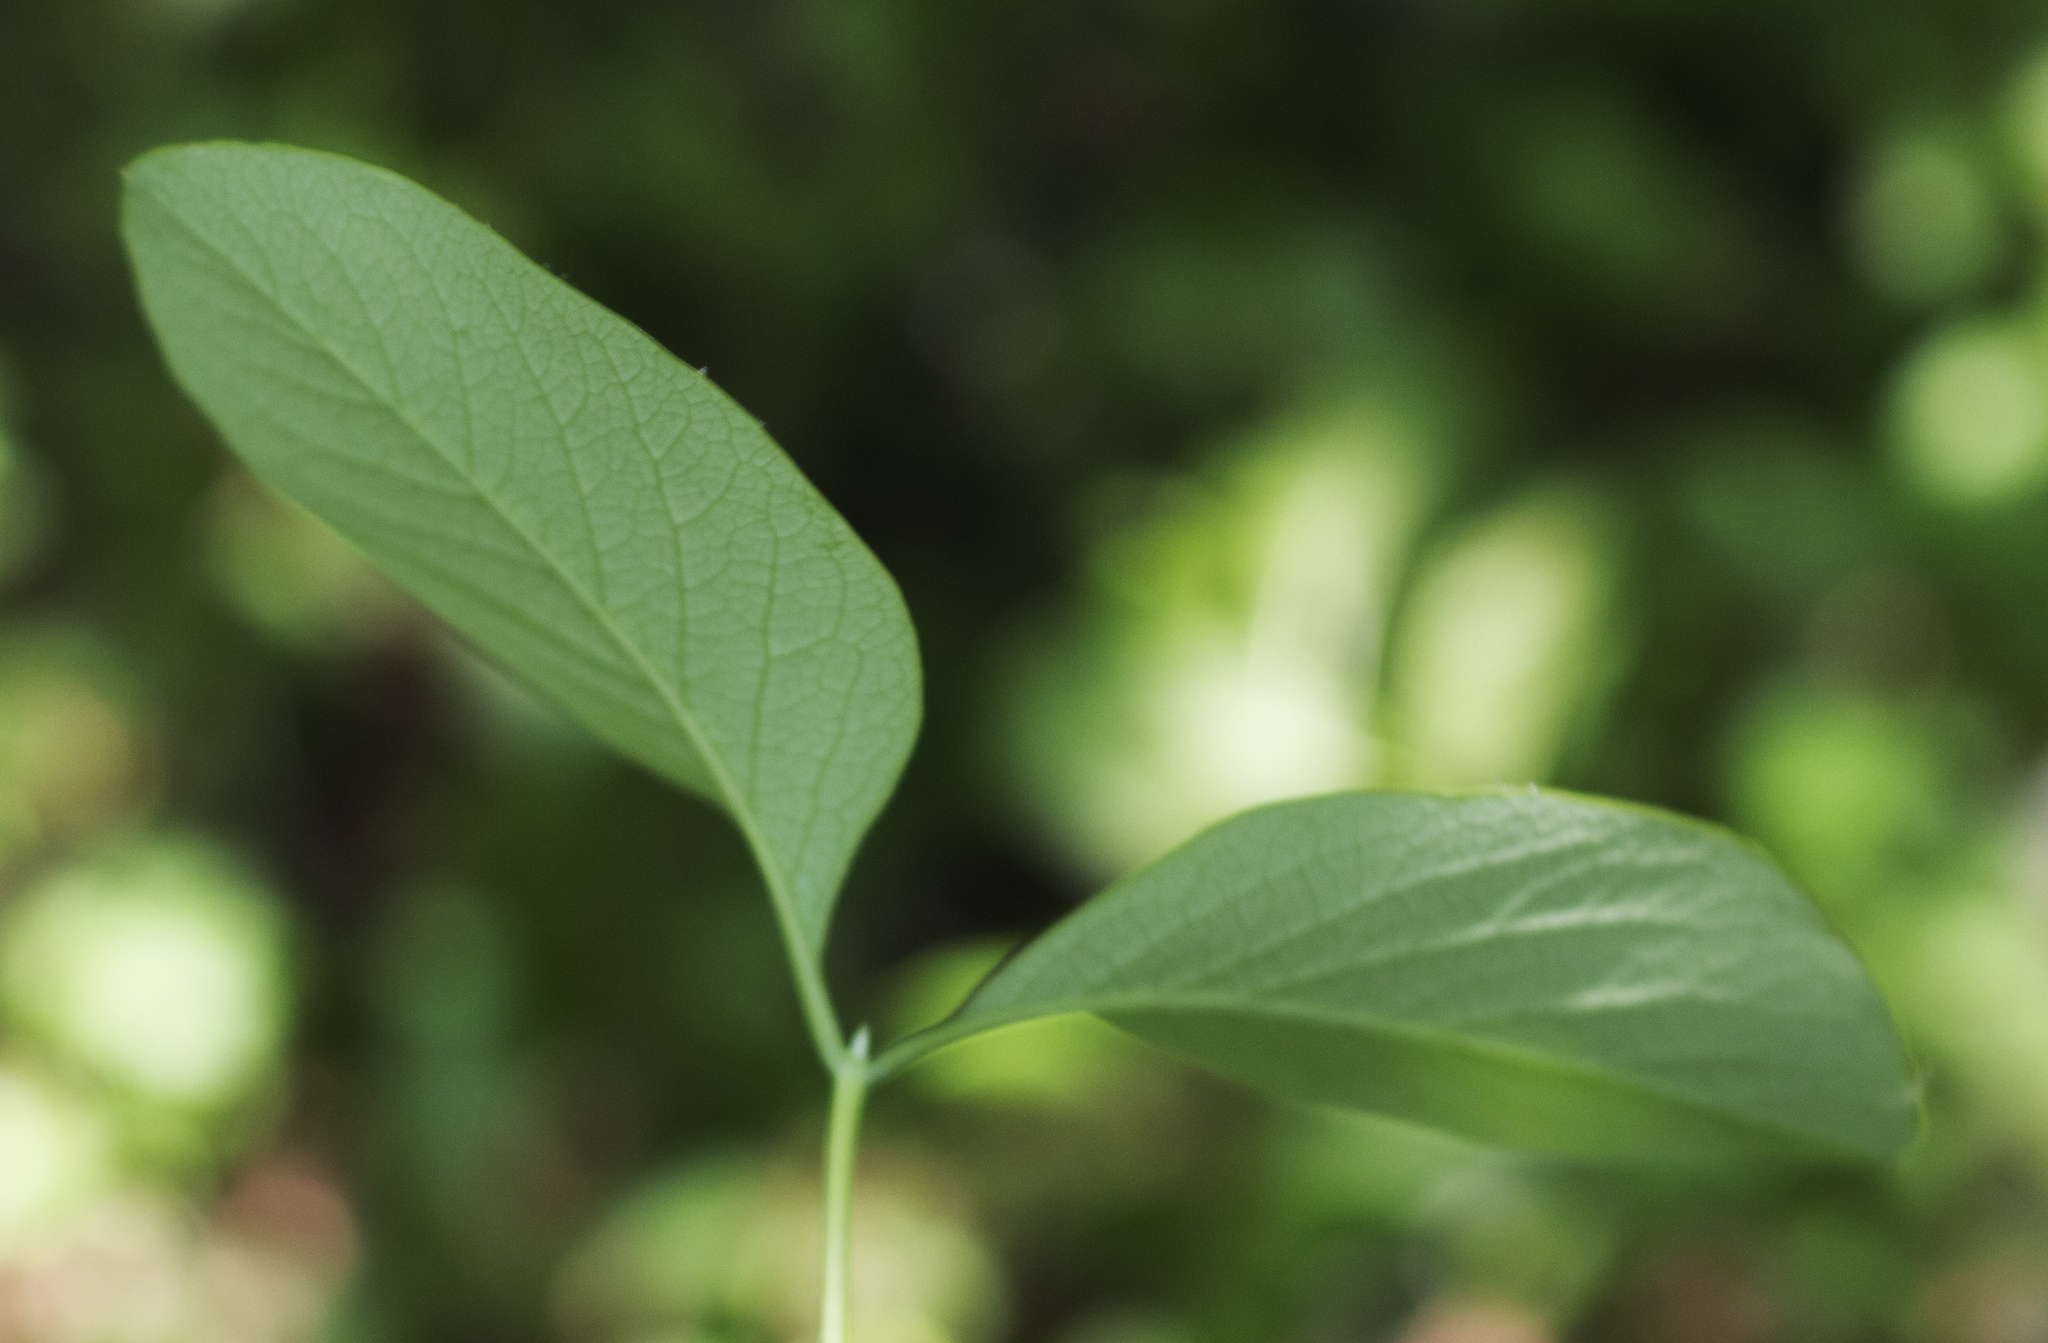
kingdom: Plantae
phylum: Tracheophyta
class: Magnoliopsida
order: Dipsacales
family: Caprifoliaceae
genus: Lonicera
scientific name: Lonicera reticulata
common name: Grape honeysuckle
